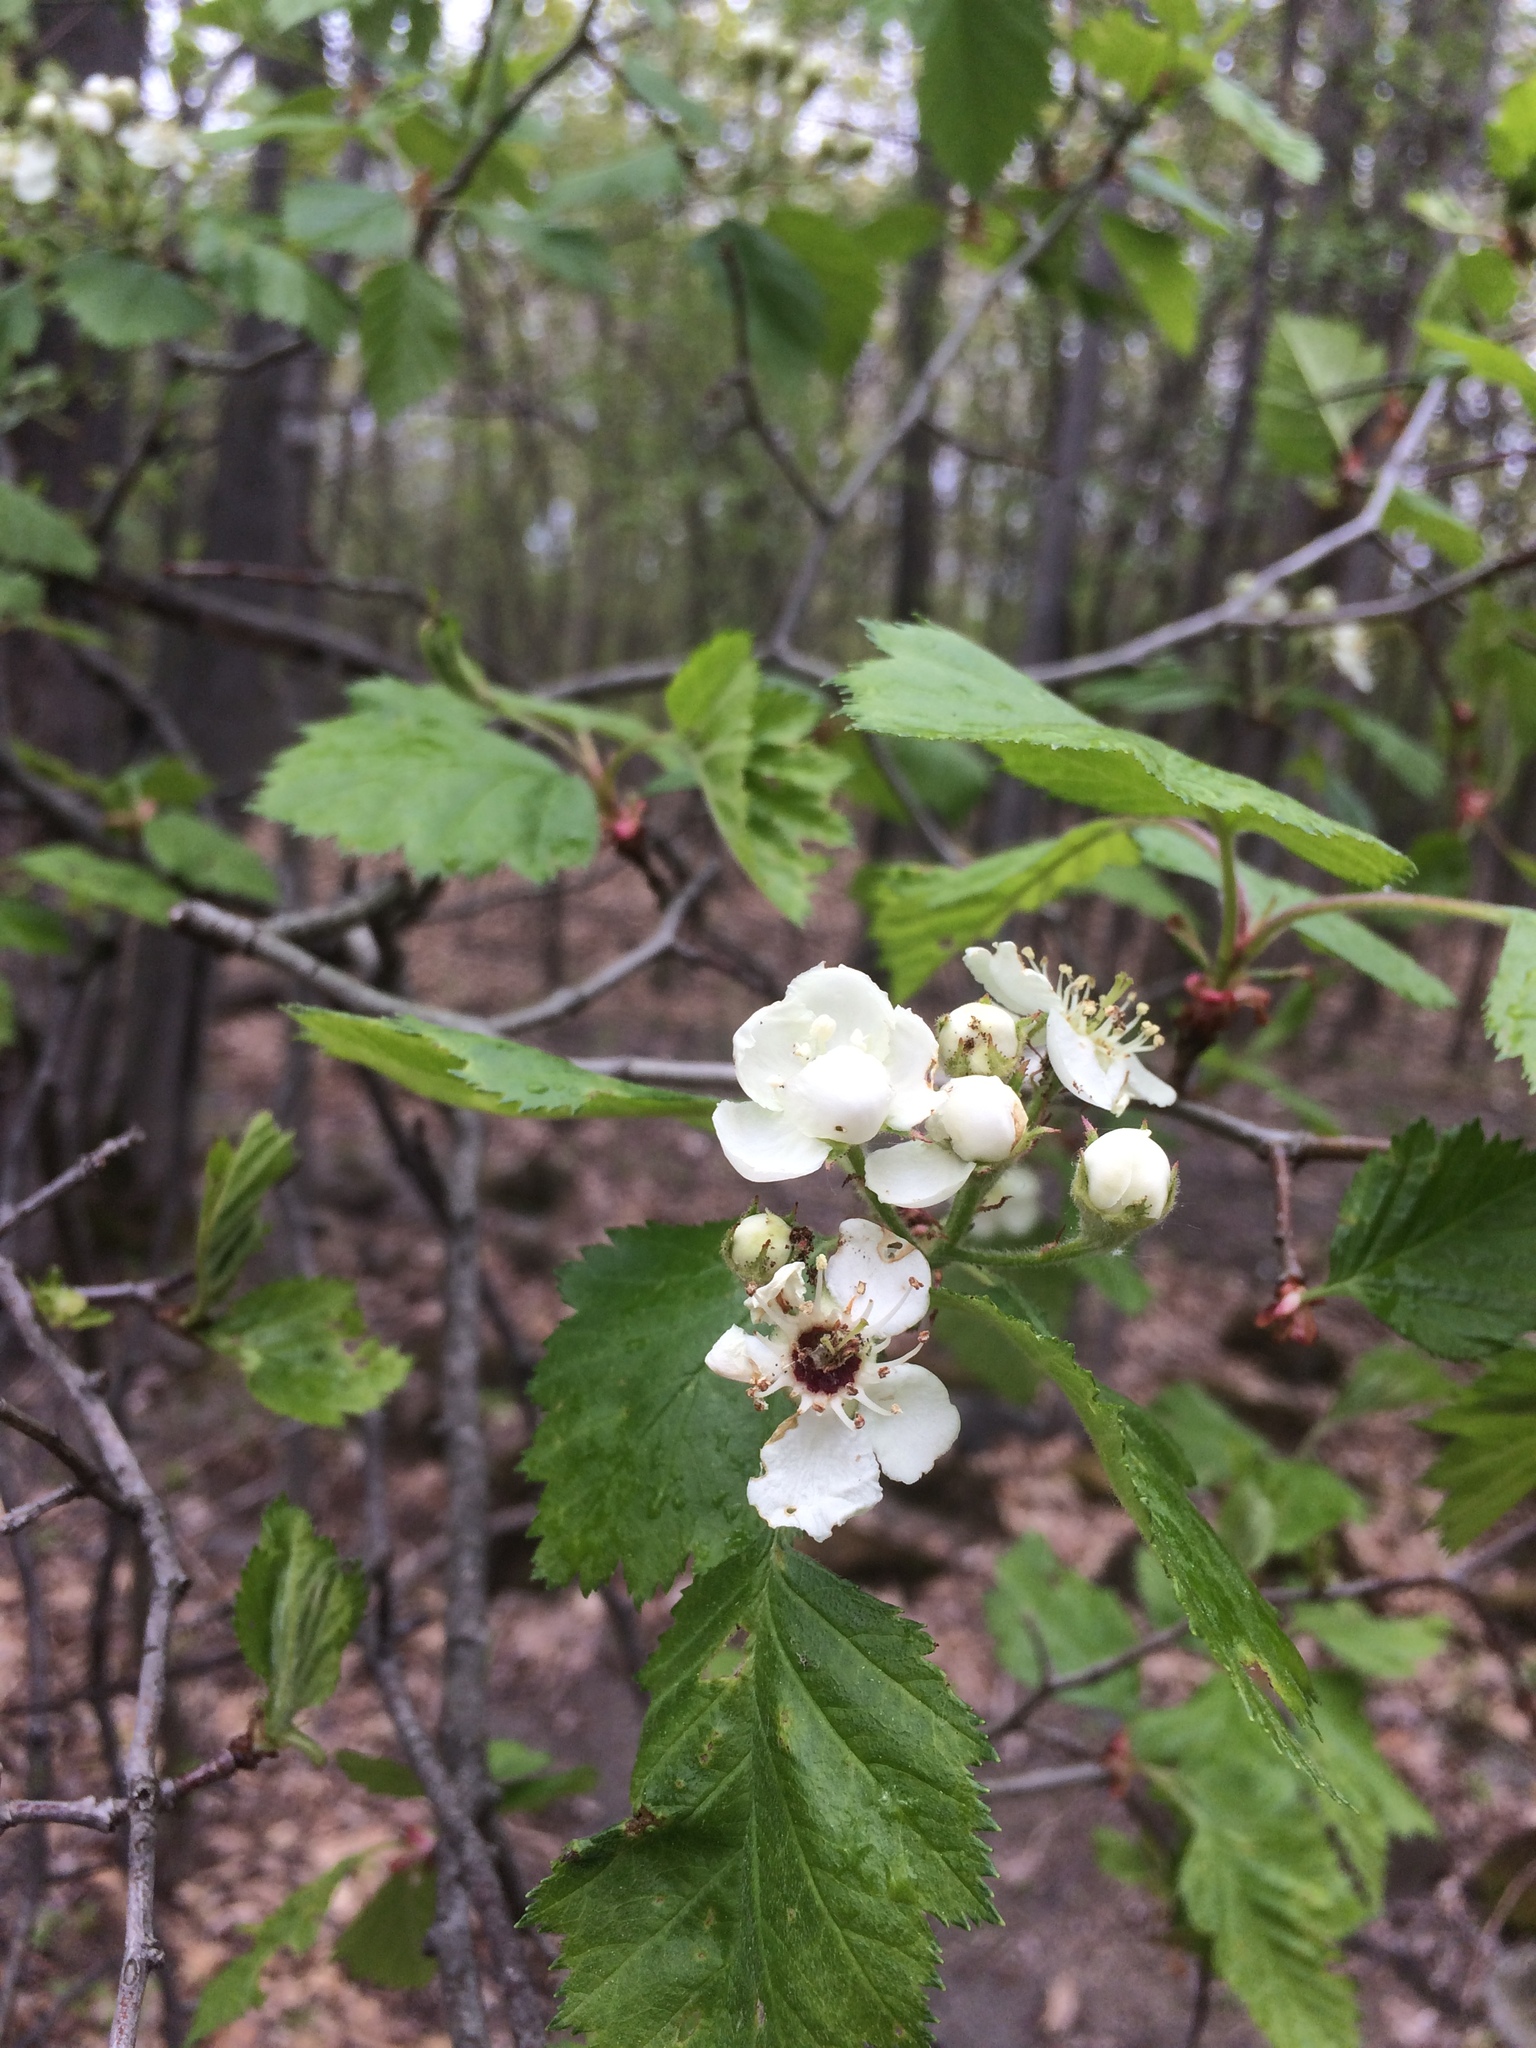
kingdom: Plantae
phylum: Tracheophyta
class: Magnoliopsida
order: Rosales
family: Rosaceae
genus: Crataegus
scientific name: Crataegus submollis
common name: Hairy cockspurthorn
